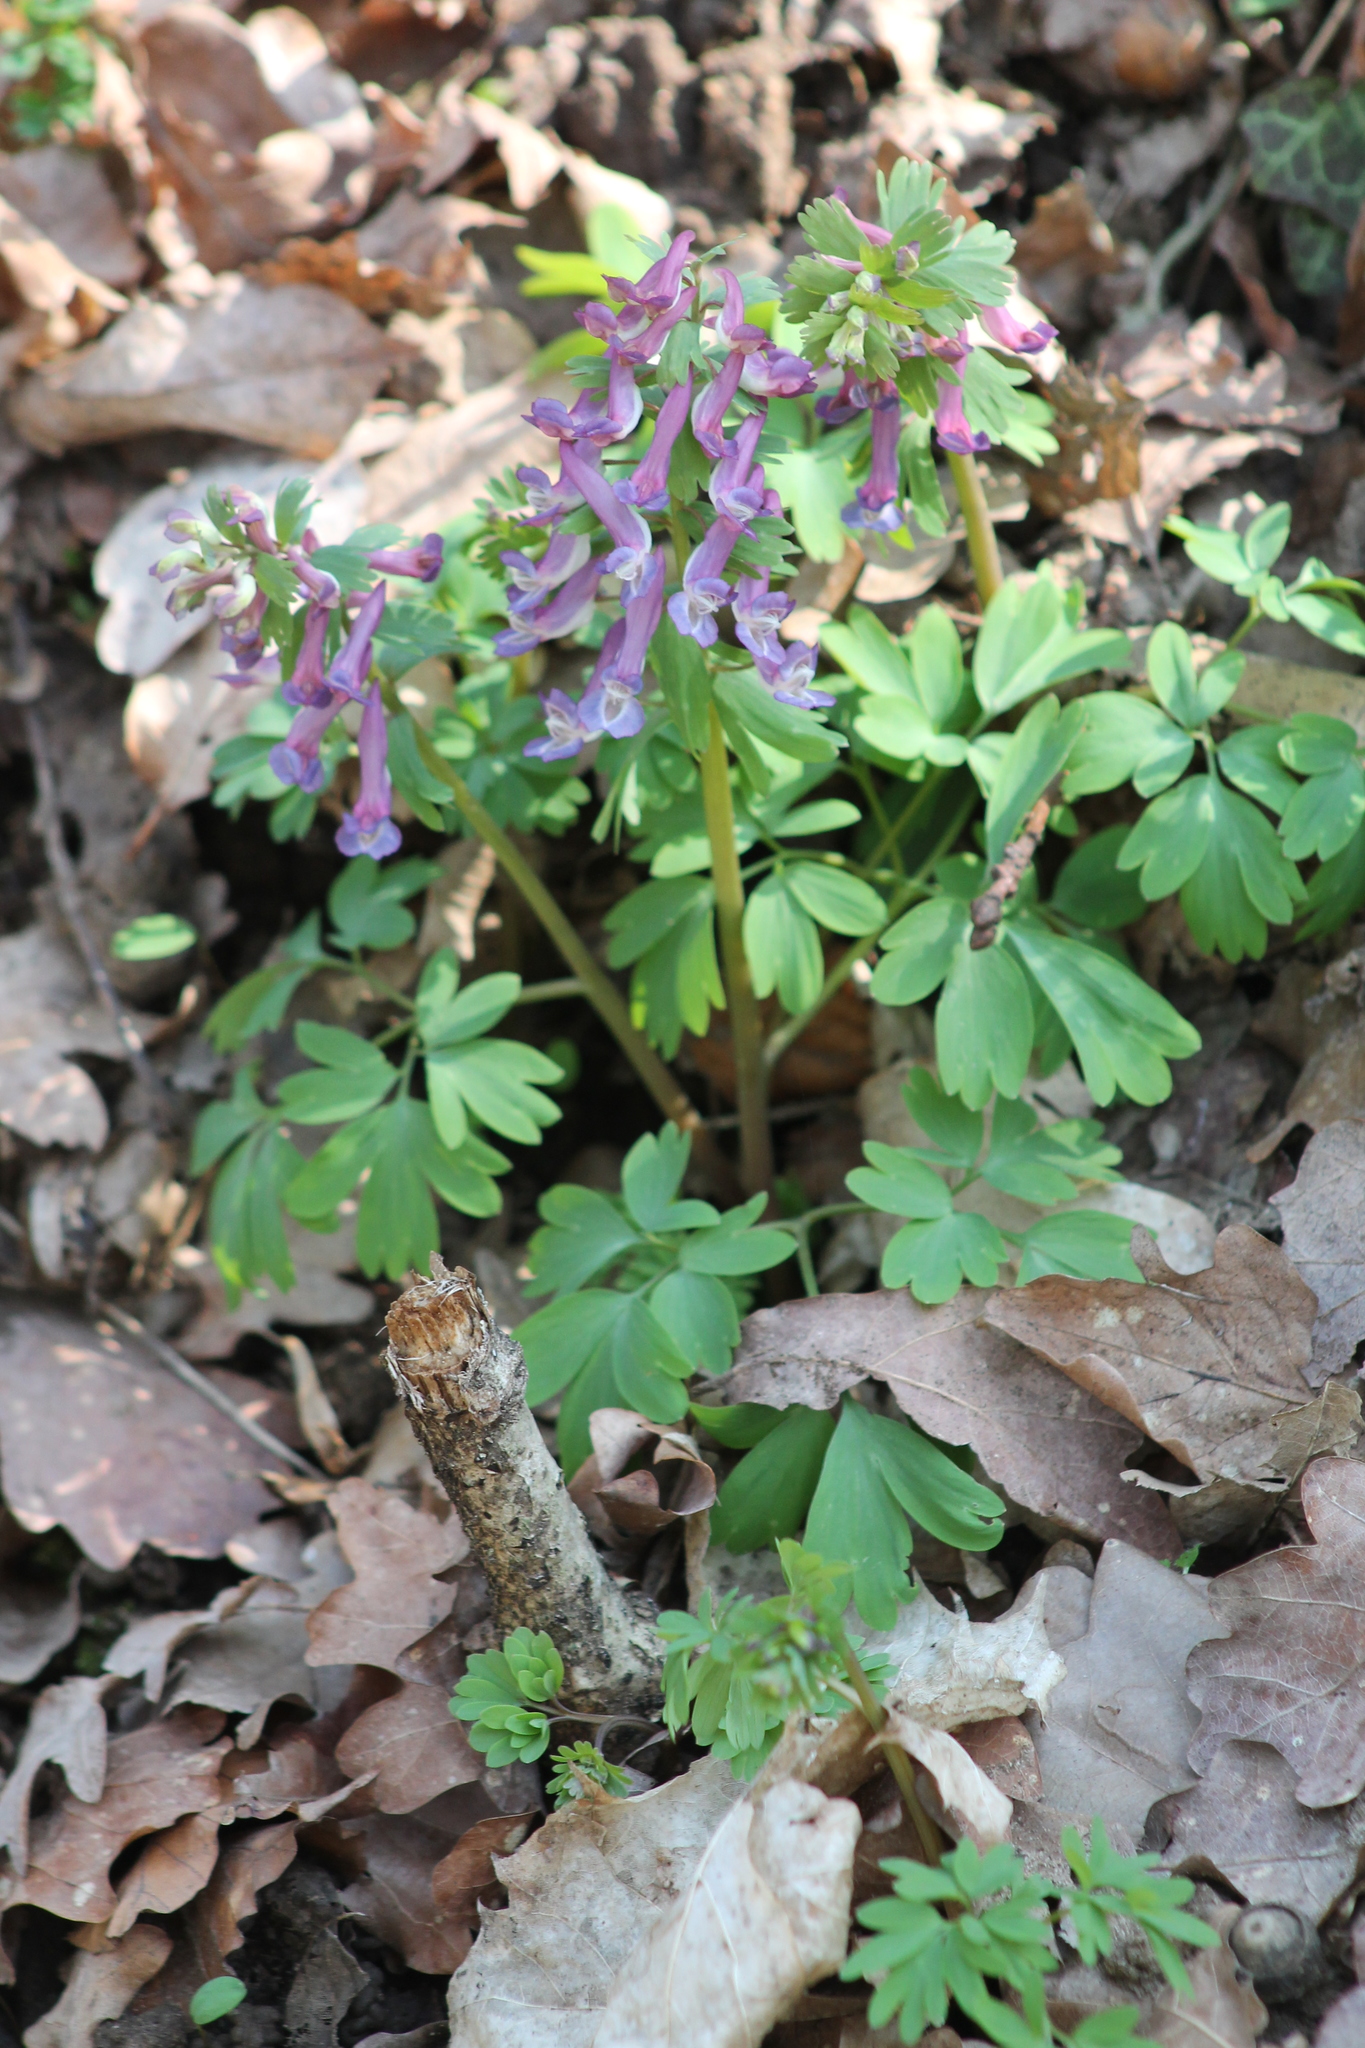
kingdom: Plantae
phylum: Tracheophyta
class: Magnoliopsida
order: Ranunculales
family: Papaveraceae
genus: Corydalis
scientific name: Corydalis solida
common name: Bird-in-a-bush
